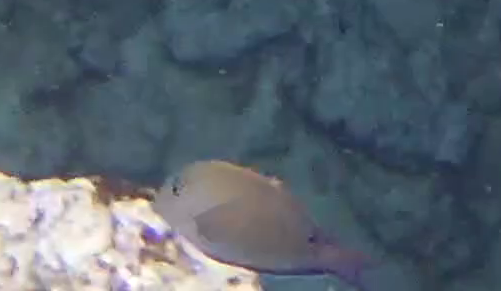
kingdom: Animalia
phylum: Chordata
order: Perciformes
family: Acanthuridae
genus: Acanthurus
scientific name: Acanthurus nigrofuscus
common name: Blackspot surgeonfish
